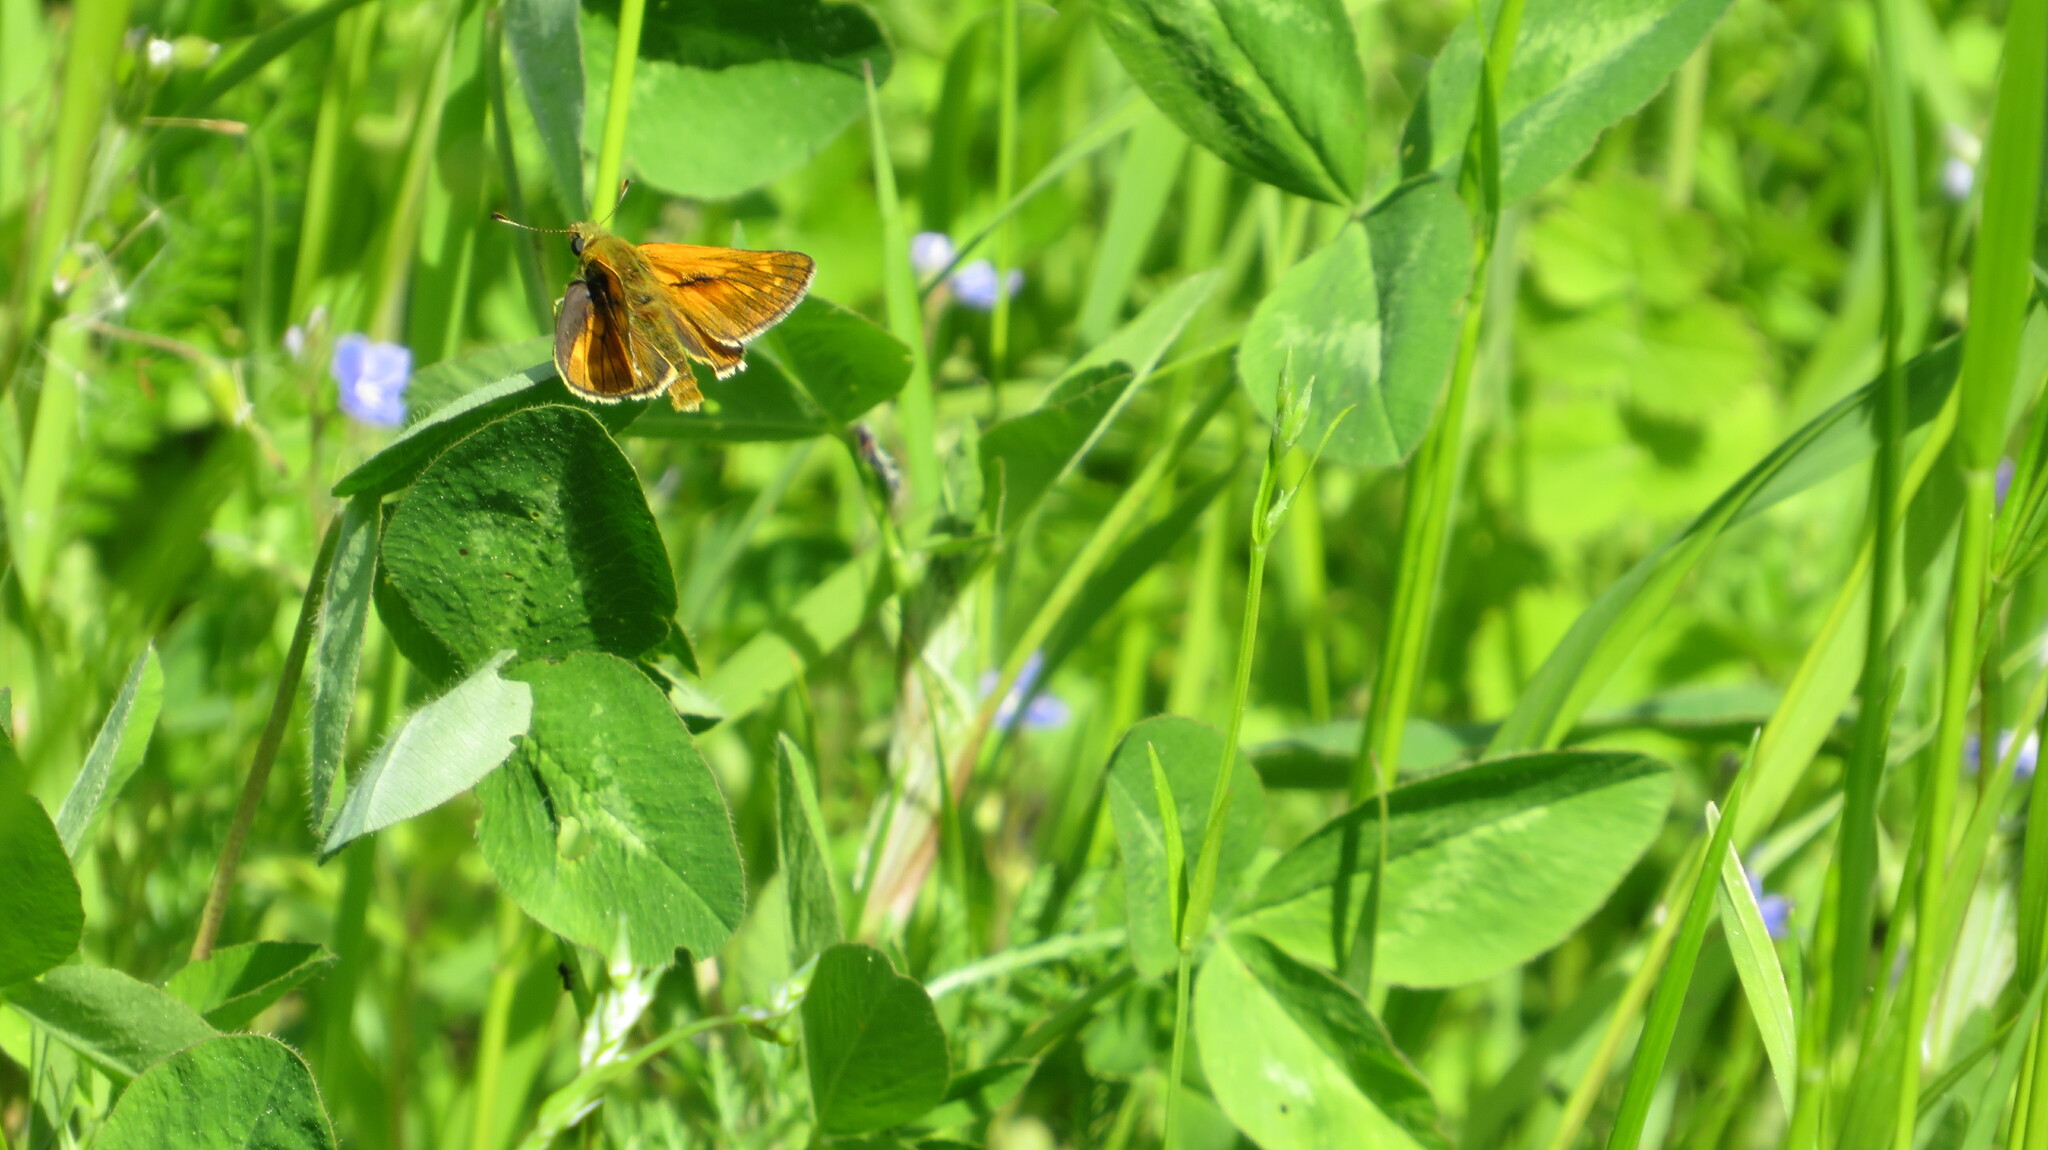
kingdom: Animalia
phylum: Arthropoda
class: Insecta
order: Lepidoptera
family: Hesperiidae
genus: Ochlodes
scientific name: Ochlodes venata
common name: Large skipper
